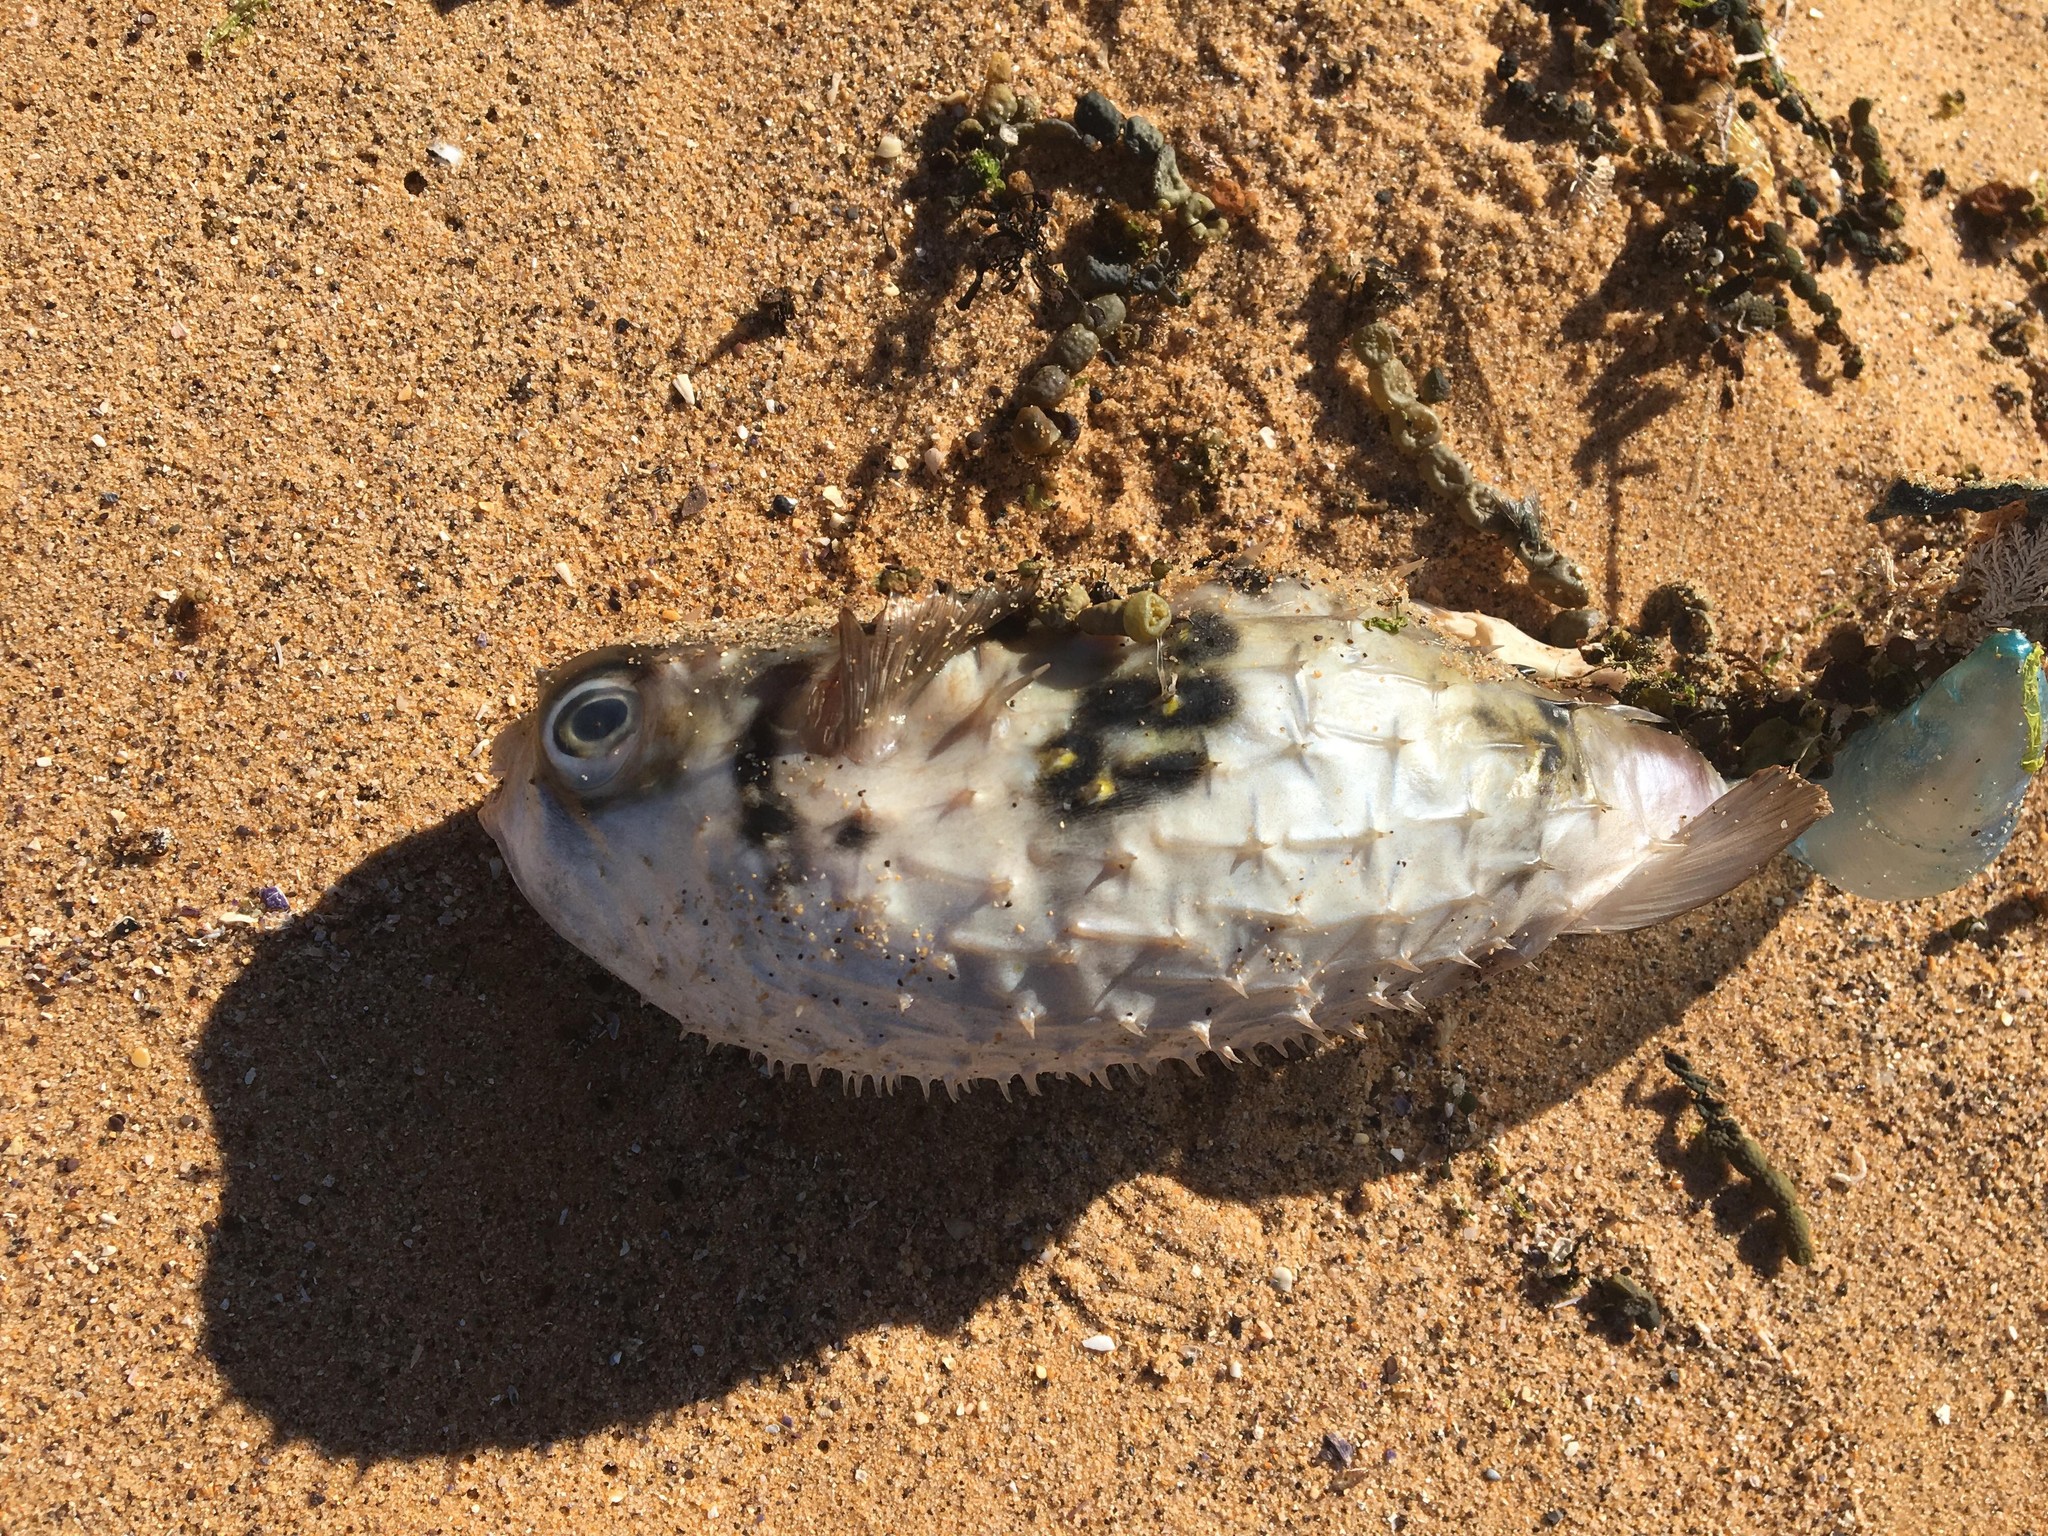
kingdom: Animalia
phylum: Chordata
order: Tetraodontiformes
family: Diodontidae
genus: Allomycterus
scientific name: Allomycterus pilatus
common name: No common name
